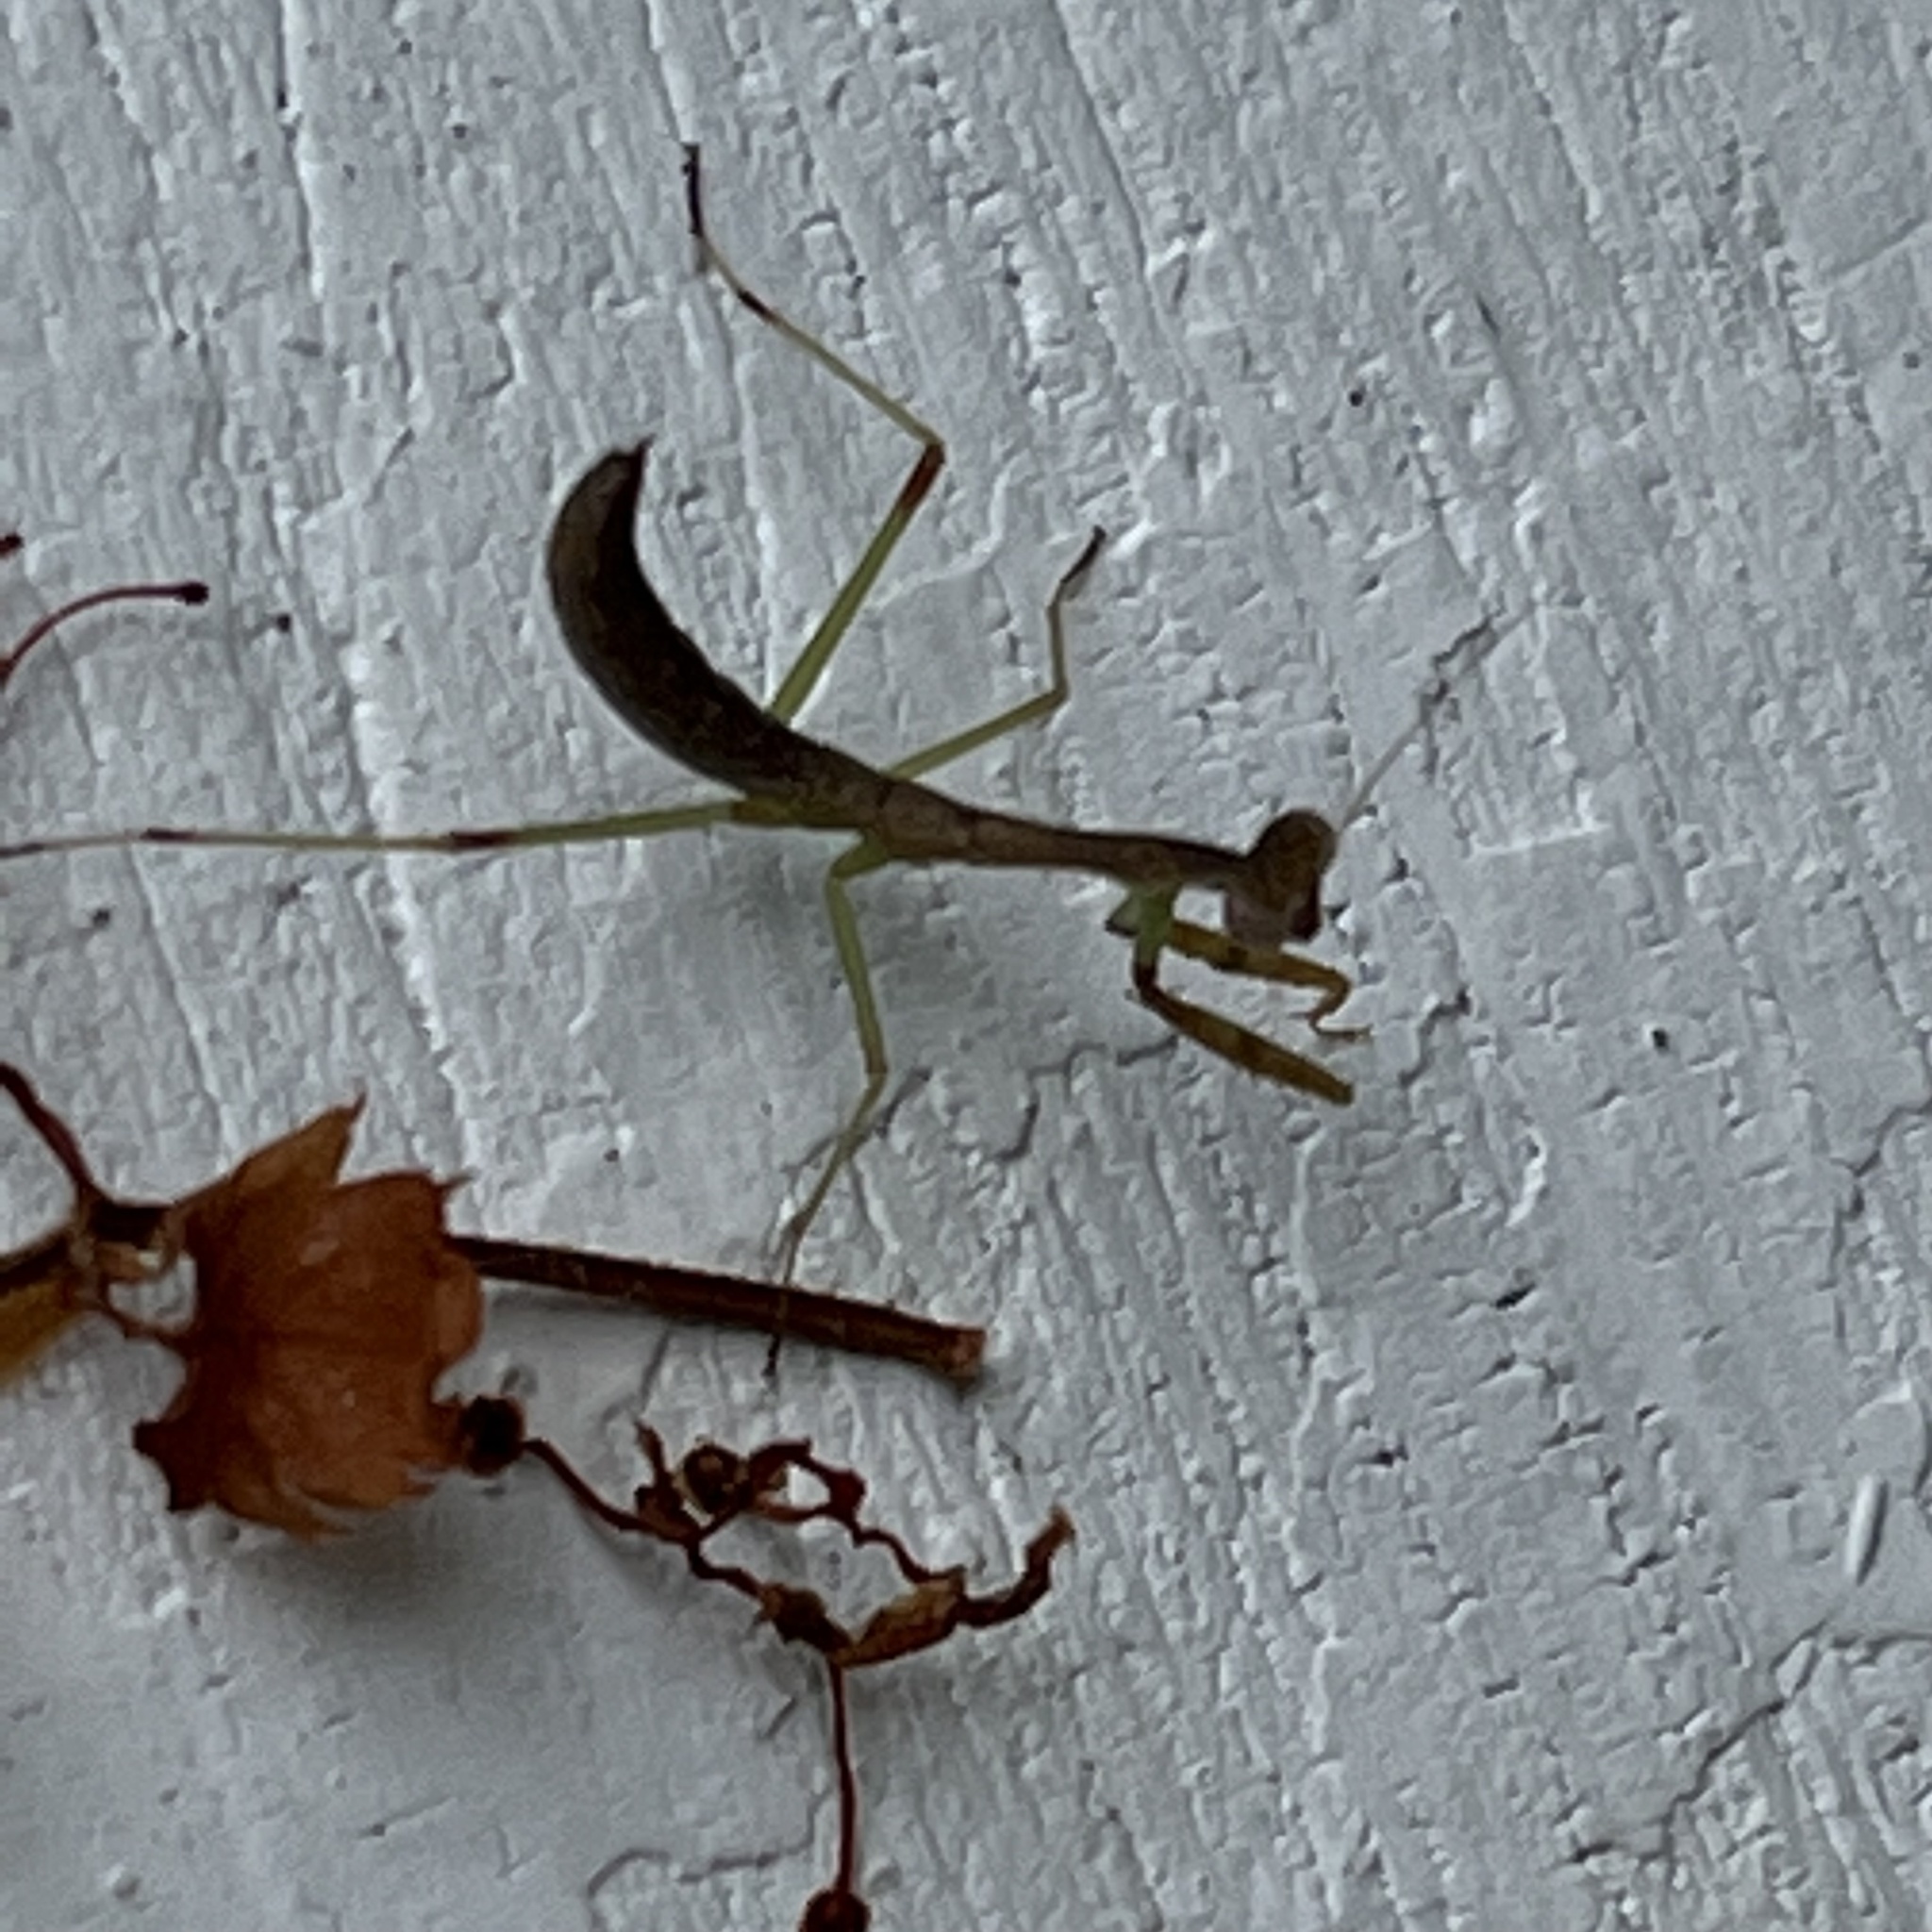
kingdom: Animalia
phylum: Arthropoda
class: Insecta
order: Mantodea
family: Mantidae
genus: Stagmomantis
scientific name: Stagmomantis carolina
